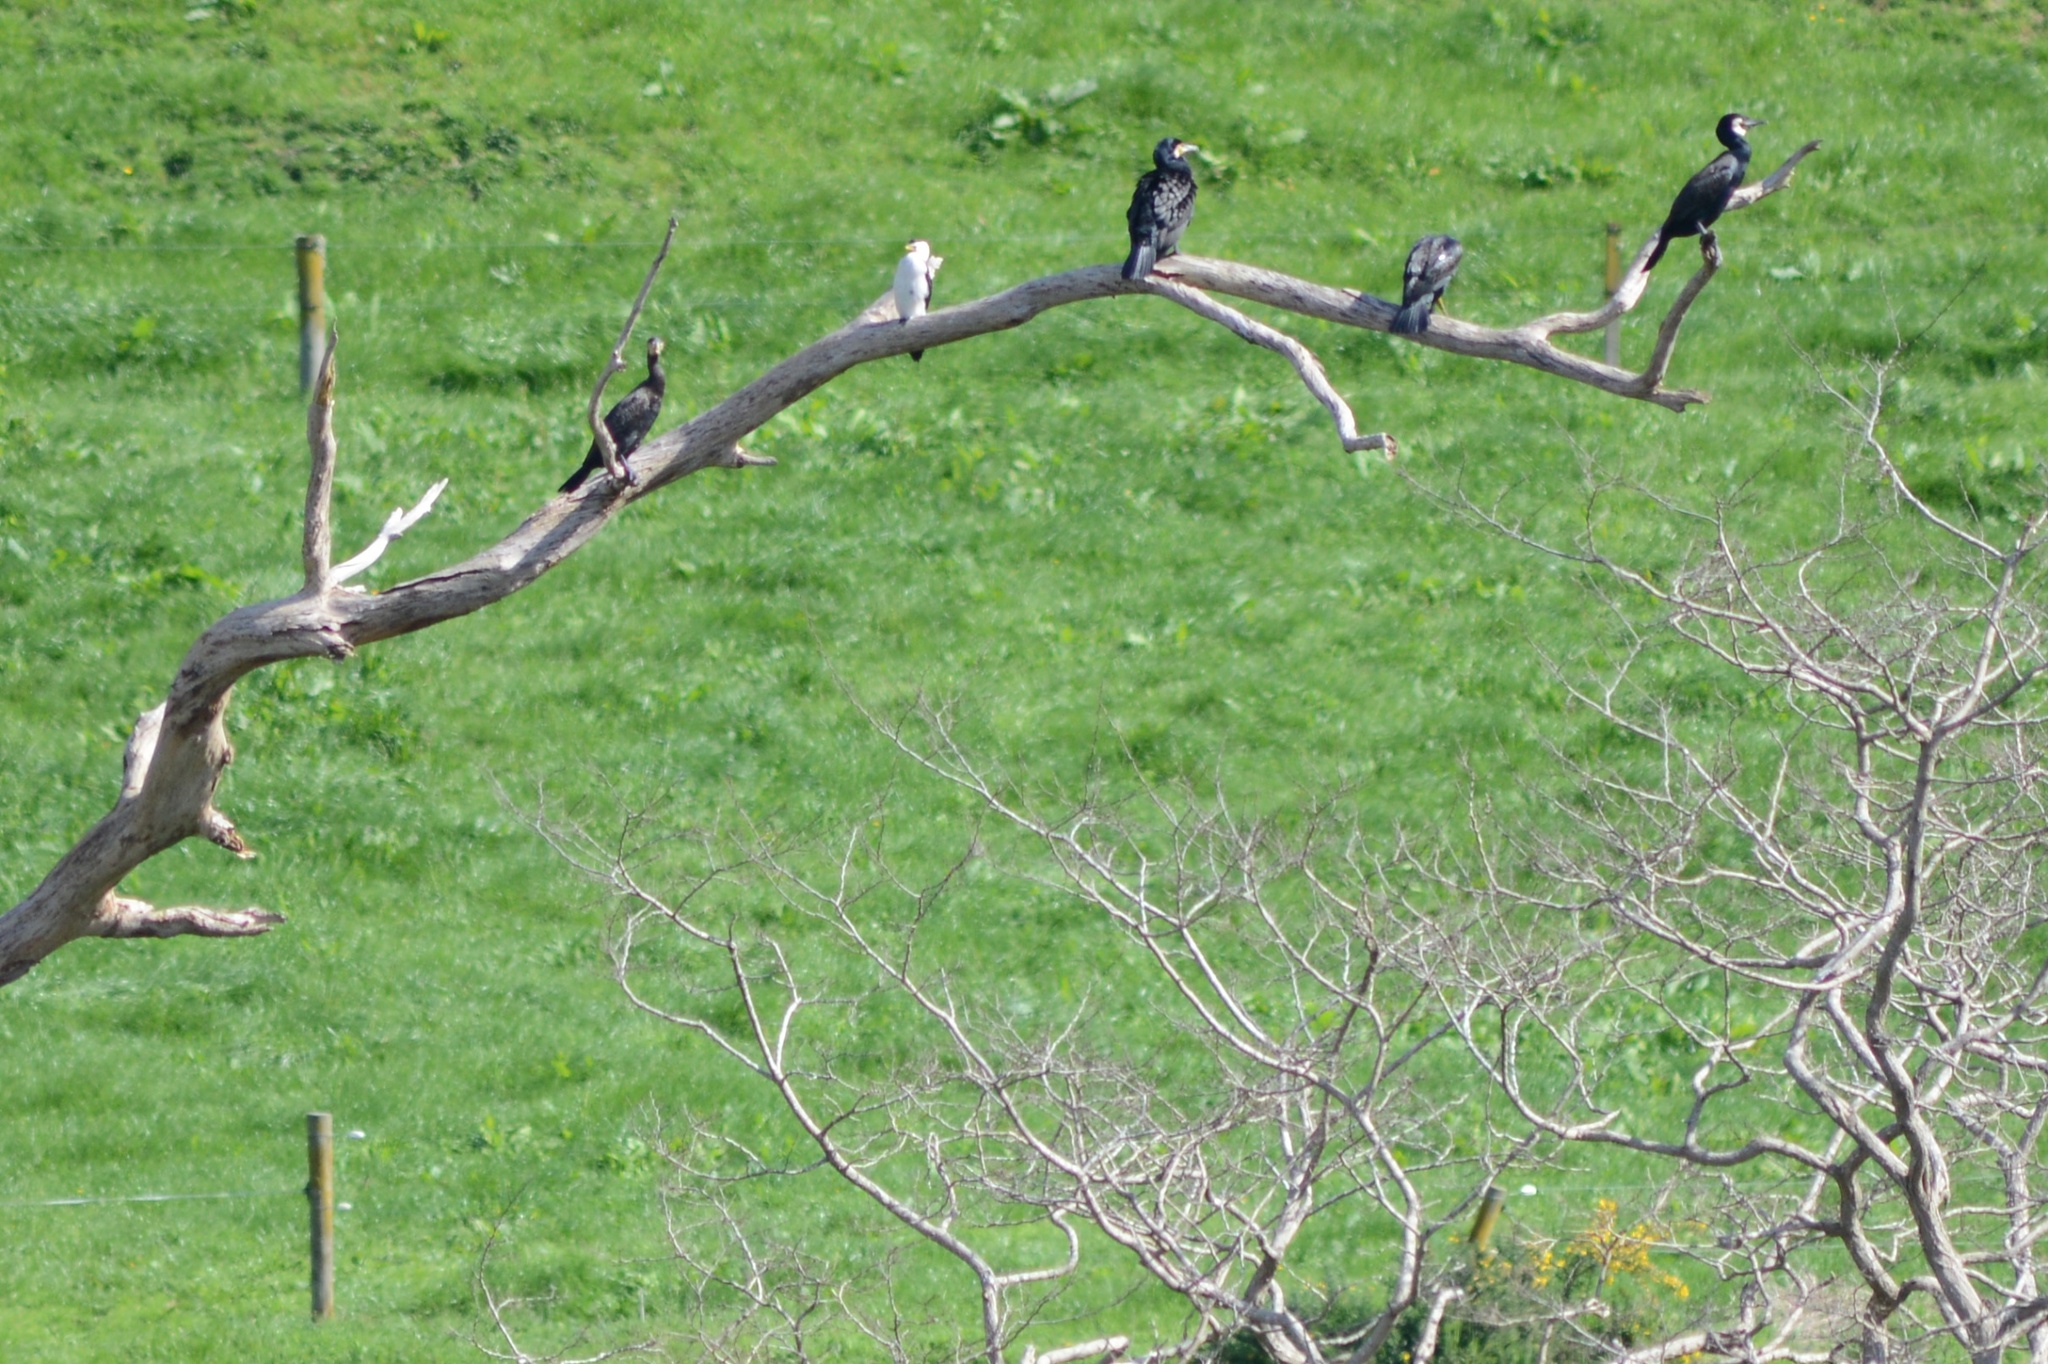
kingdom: Animalia
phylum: Chordata
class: Aves
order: Suliformes
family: Phalacrocoracidae
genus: Microcarbo
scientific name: Microcarbo melanoleucos
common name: Little pied cormorant
